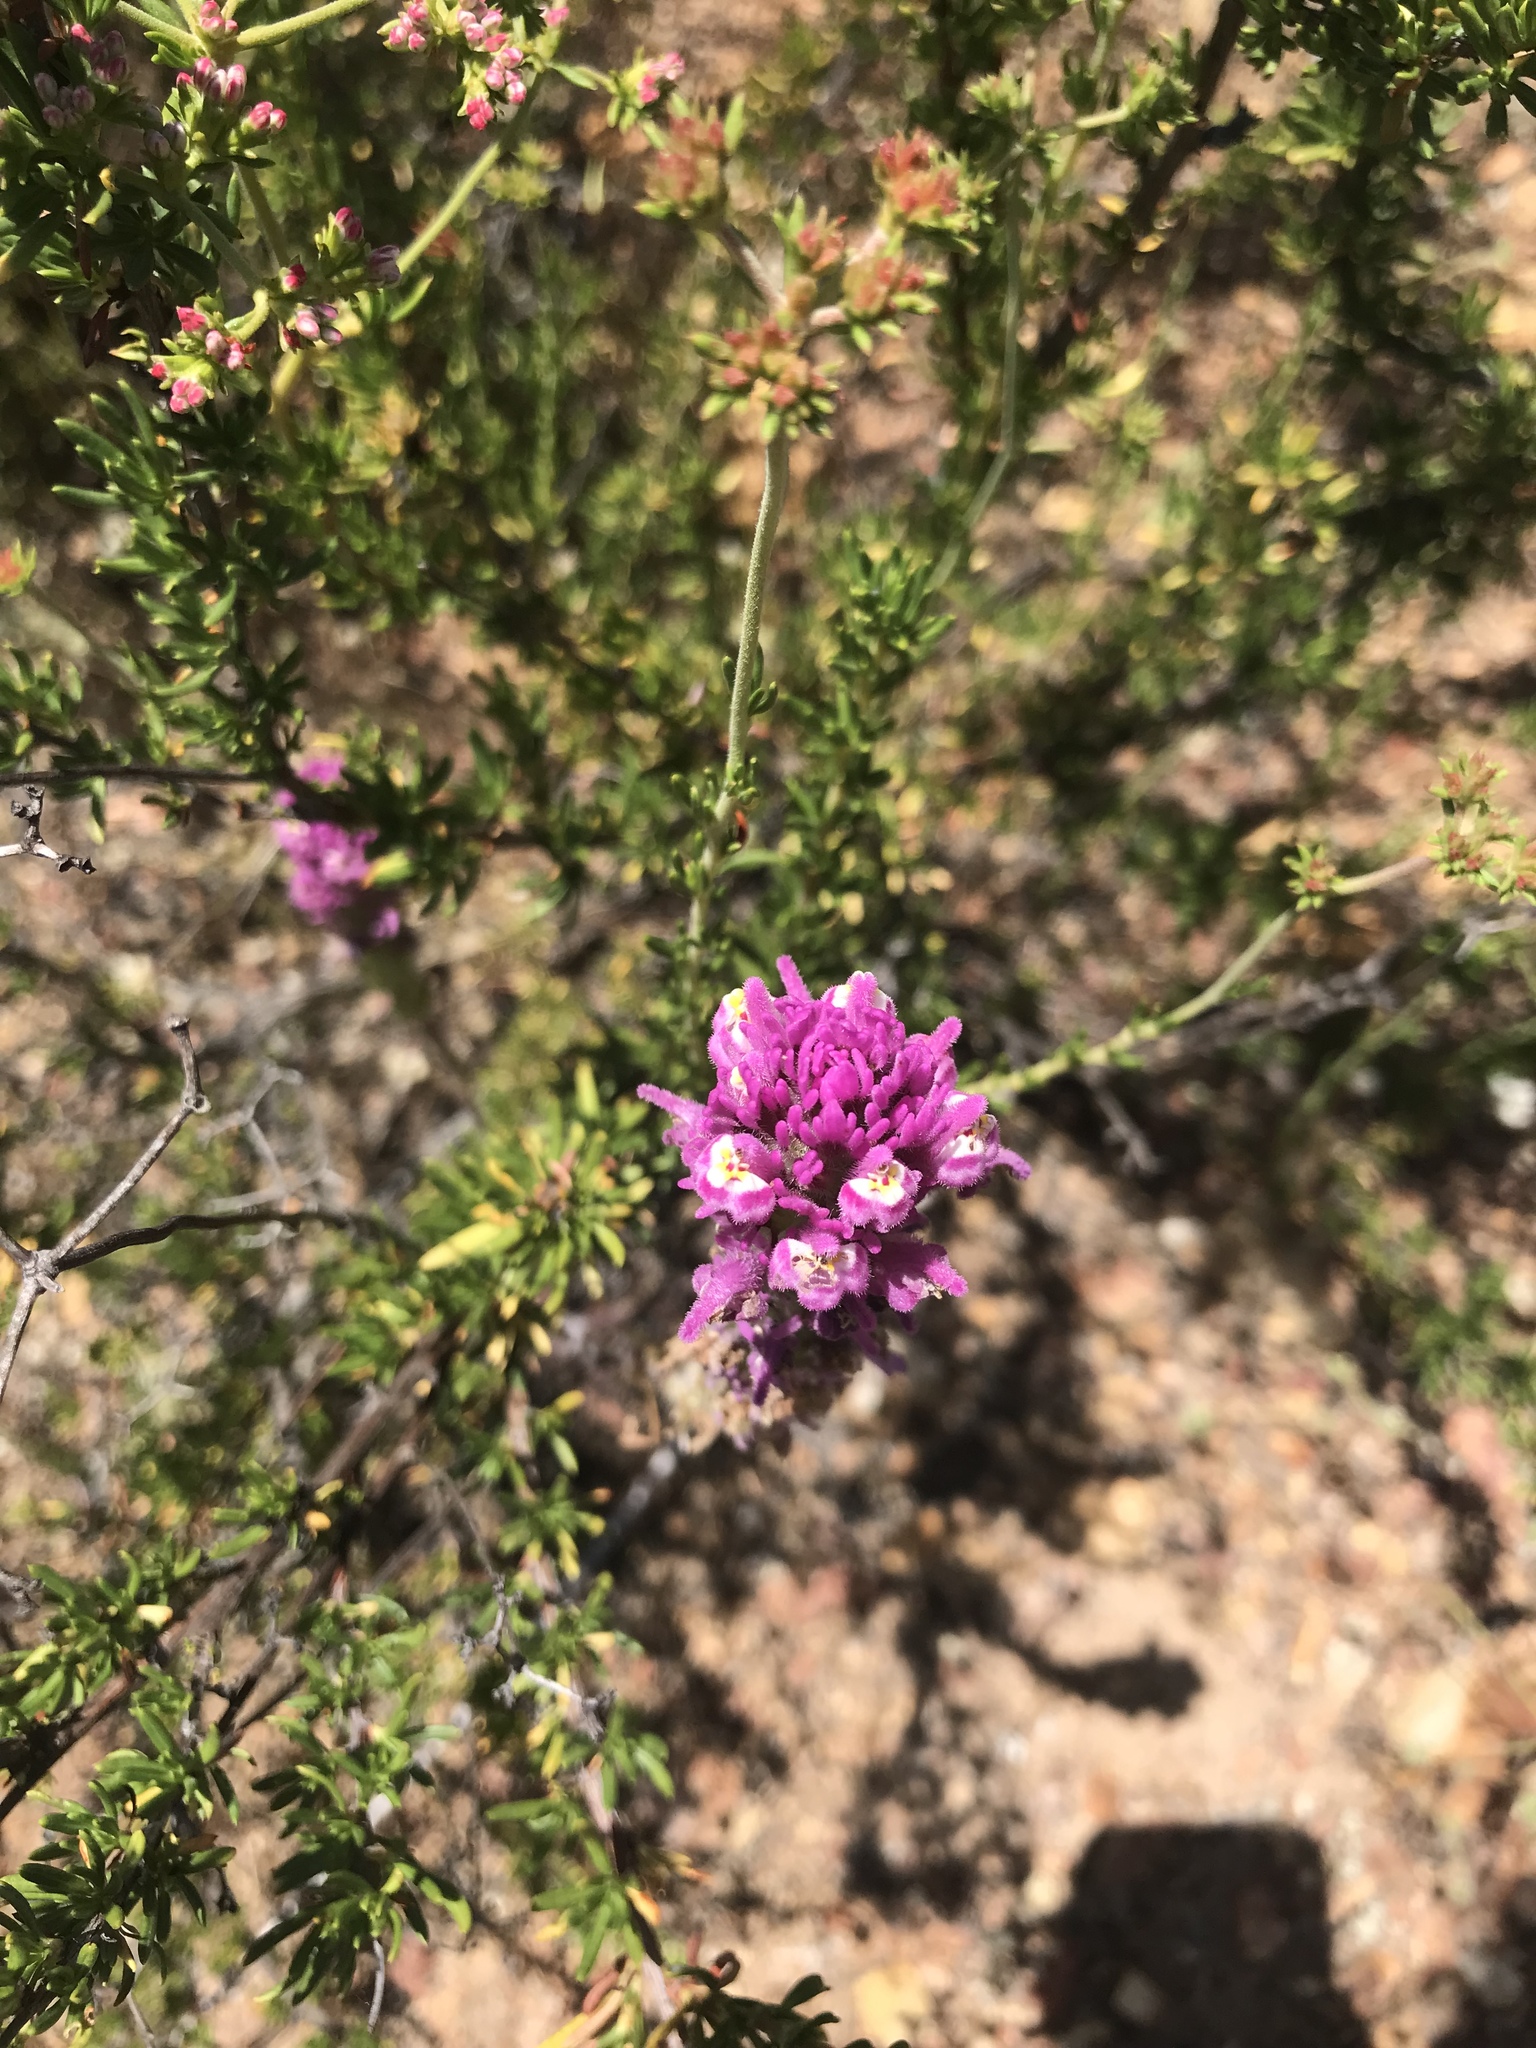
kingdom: Plantae
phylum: Tracheophyta
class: Magnoliopsida
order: Lamiales
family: Orobanchaceae
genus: Castilleja
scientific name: Castilleja exserta
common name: Purple owl-clover
